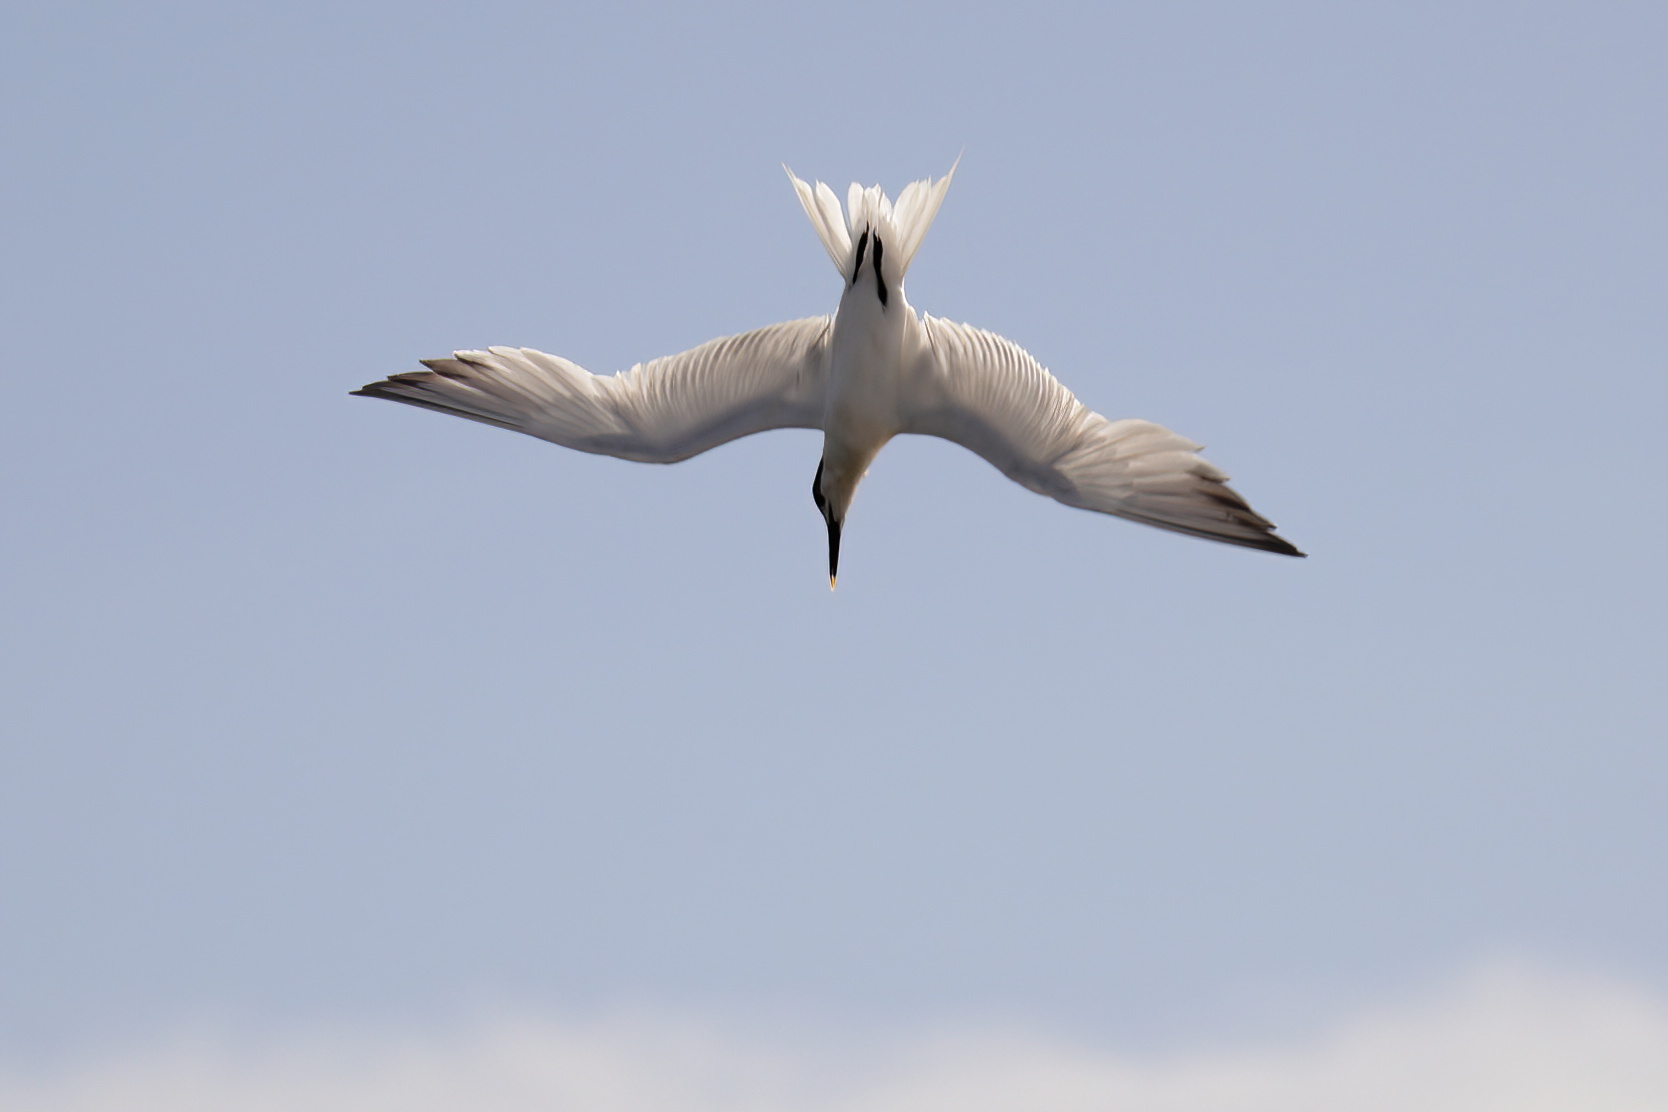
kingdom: Animalia
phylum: Chordata
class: Aves
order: Charadriiformes
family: Laridae
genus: Thalasseus
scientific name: Thalasseus sandvicensis
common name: Sandwich tern
